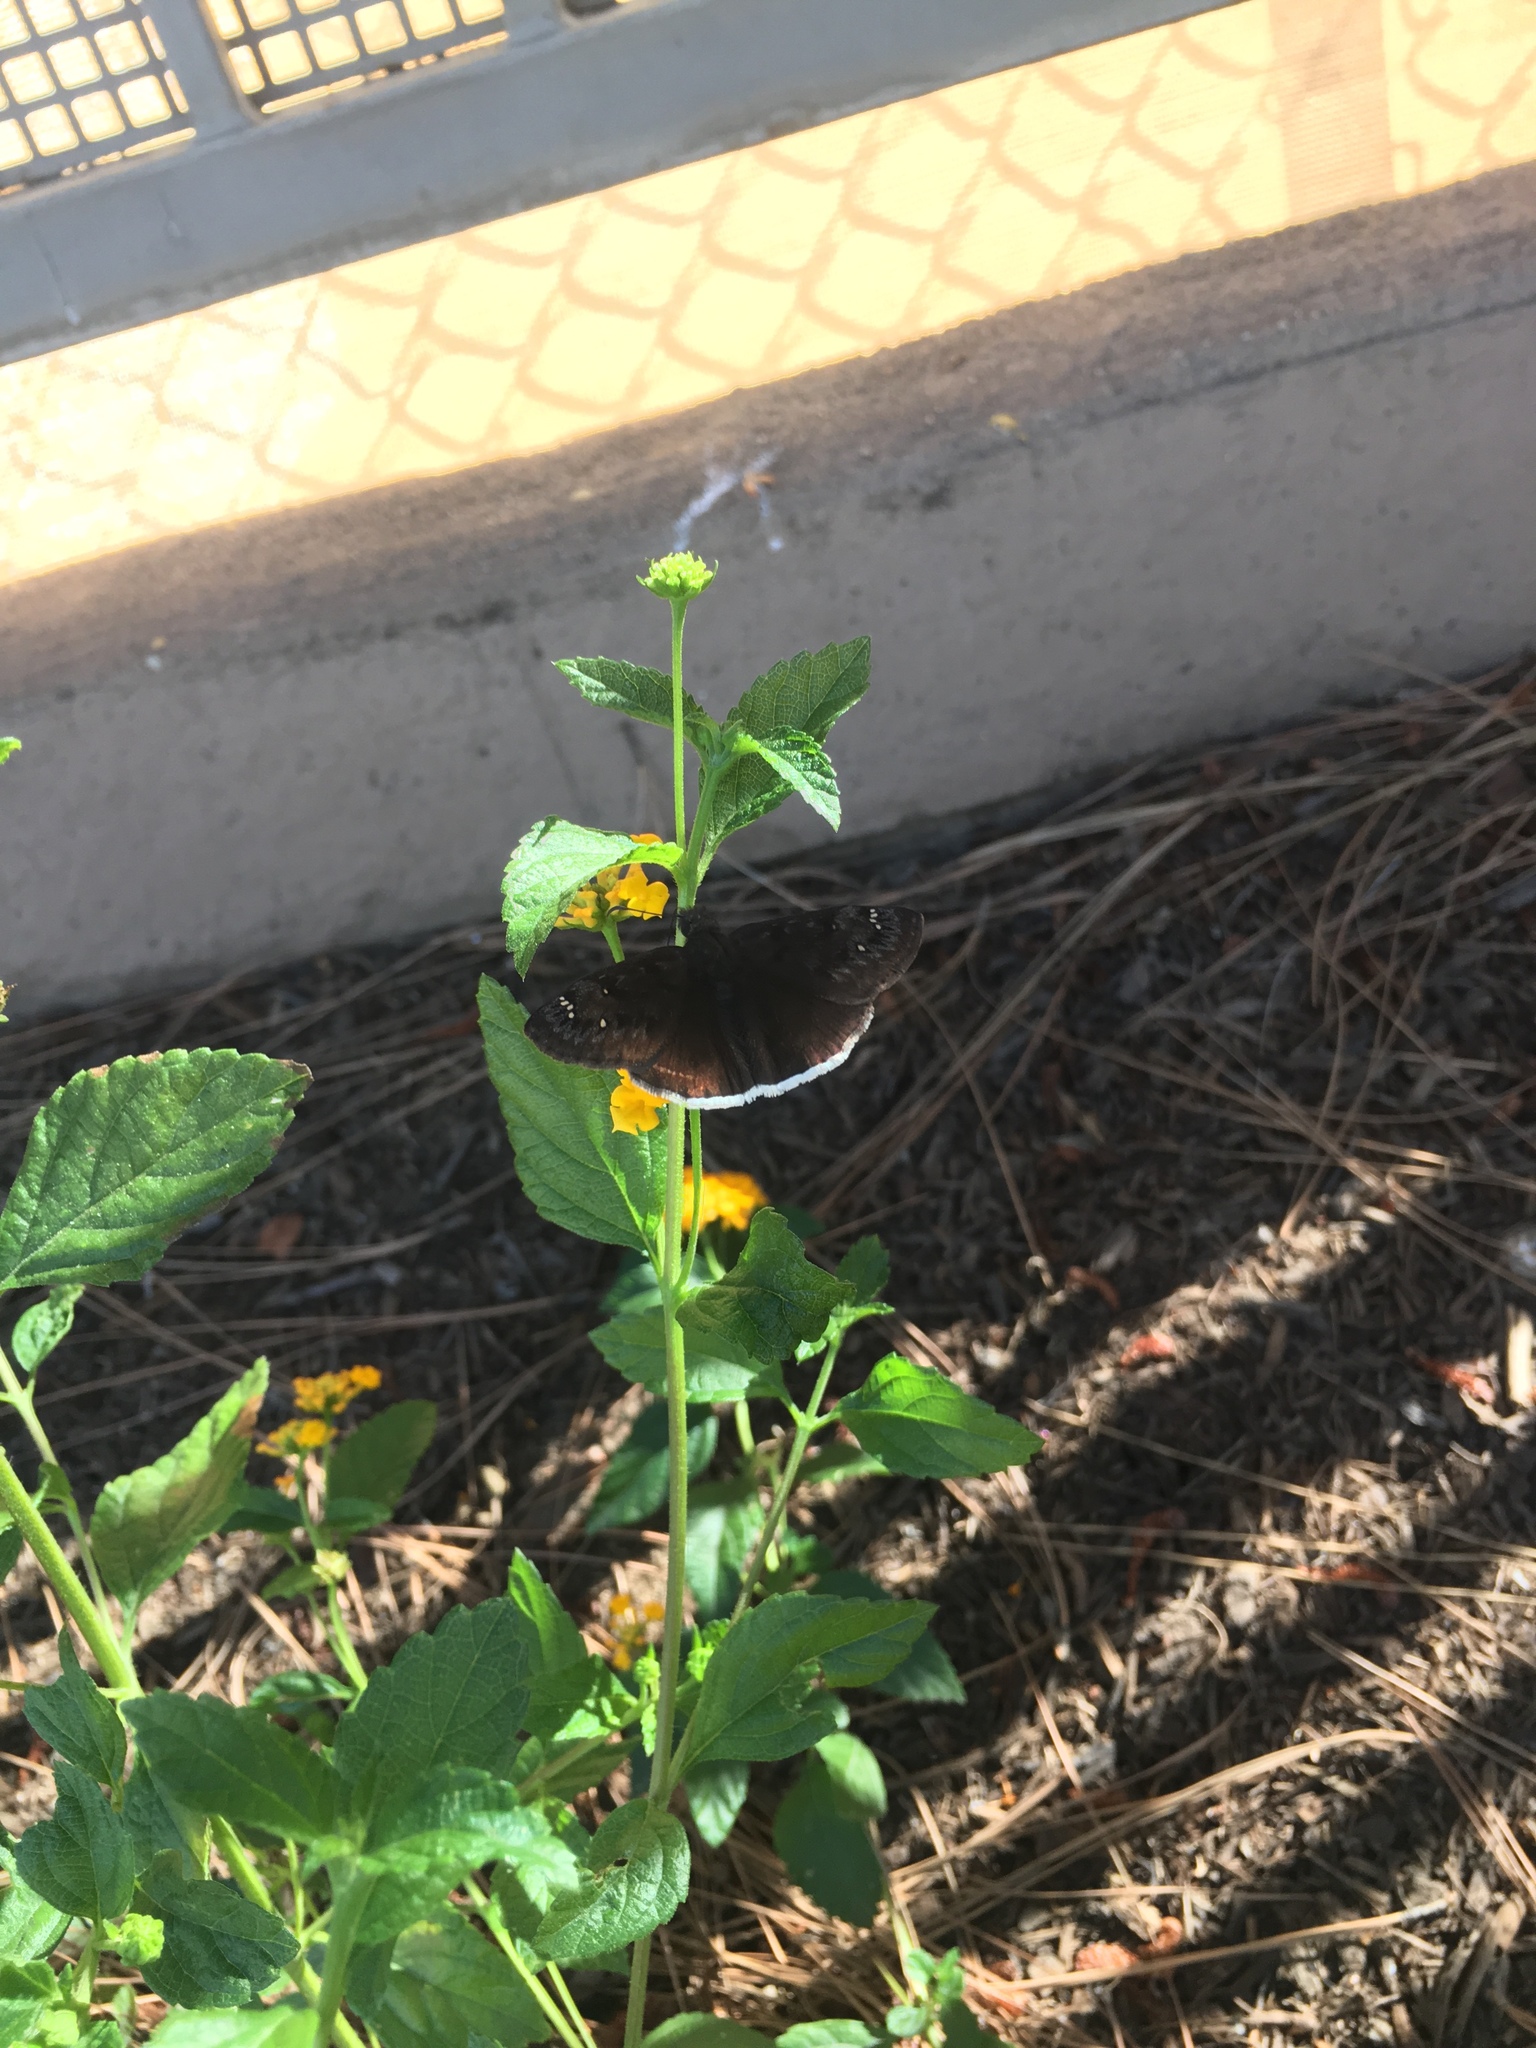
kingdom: Animalia
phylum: Arthropoda
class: Insecta
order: Lepidoptera
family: Hesperiidae
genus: Erynnis
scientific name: Erynnis tristis
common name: Mournful duskywing
